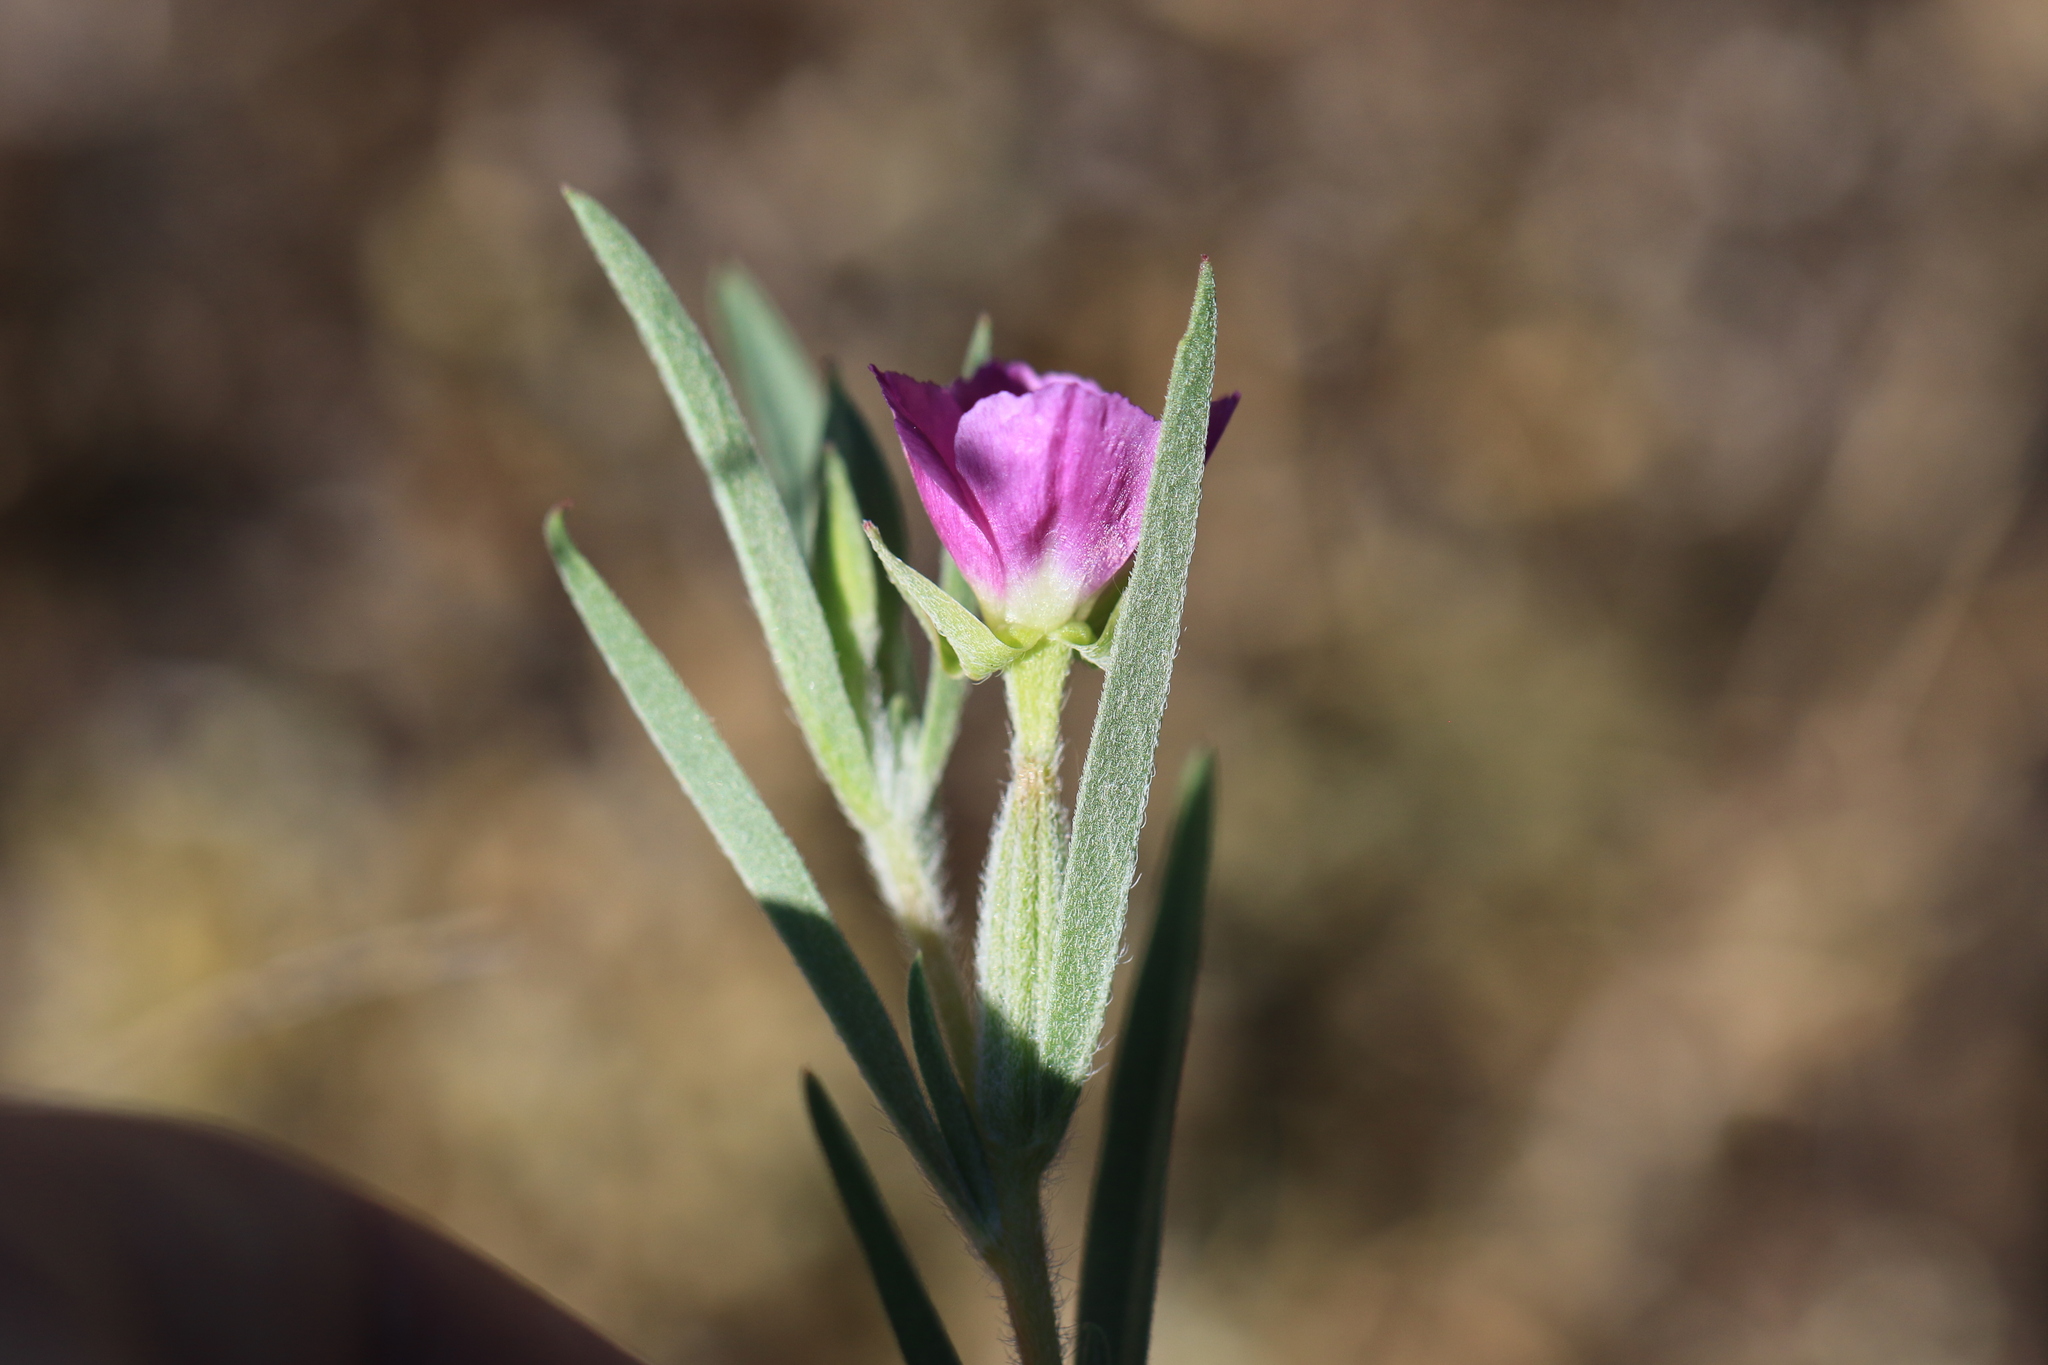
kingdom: Plantae
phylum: Tracheophyta
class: Magnoliopsida
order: Myrtales
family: Onagraceae
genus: Clarkia
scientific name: Clarkia purpurea
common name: Purple clarkia
